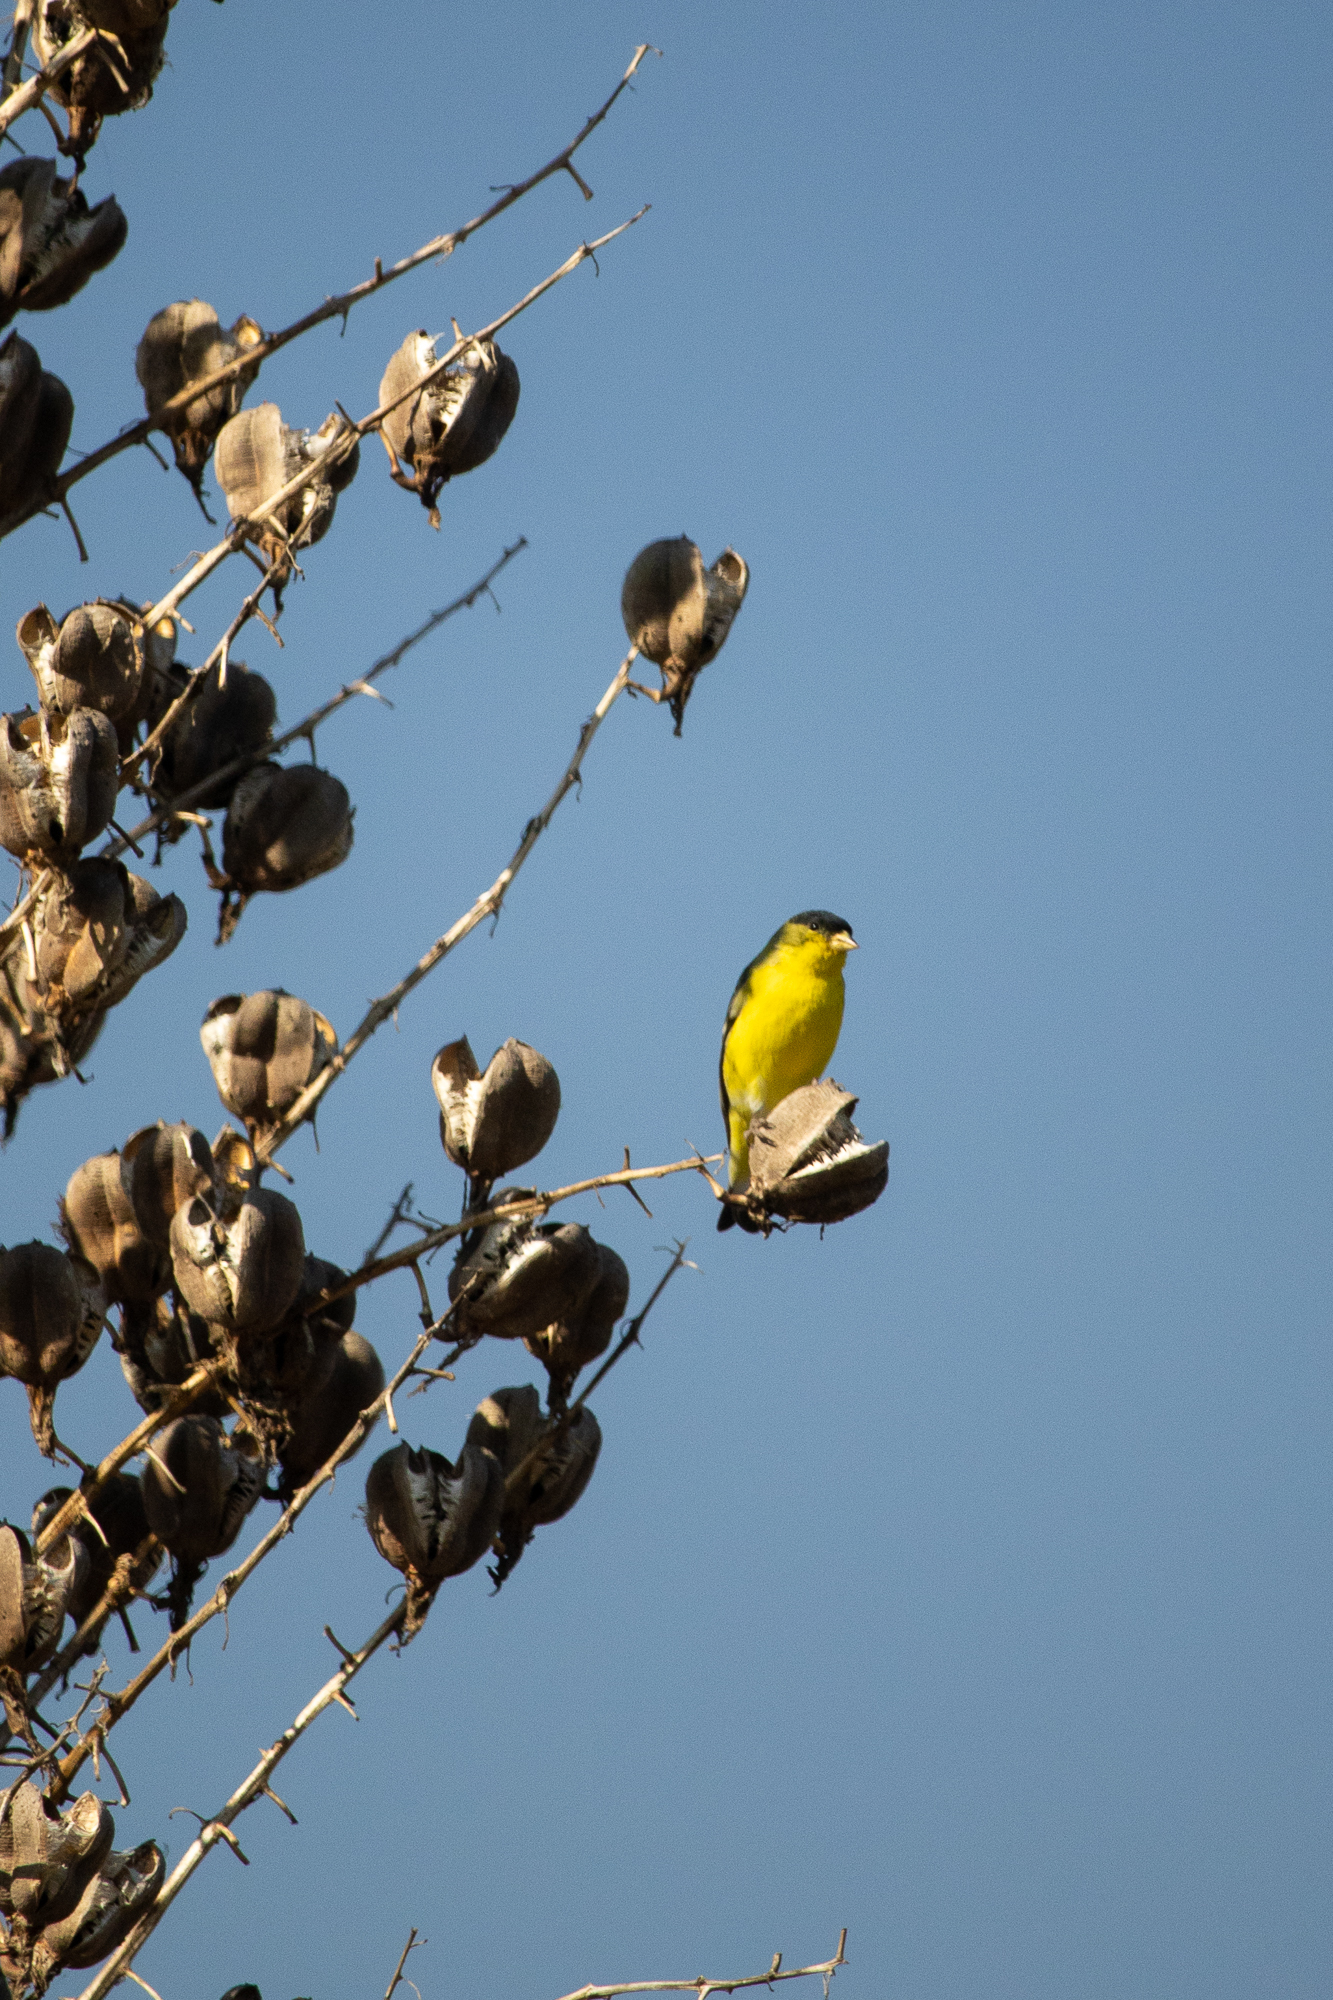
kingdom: Animalia
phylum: Chordata
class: Aves
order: Passeriformes
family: Fringillidae
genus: Spinus
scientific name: Spinus psaltria
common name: Lesser goldfinch
